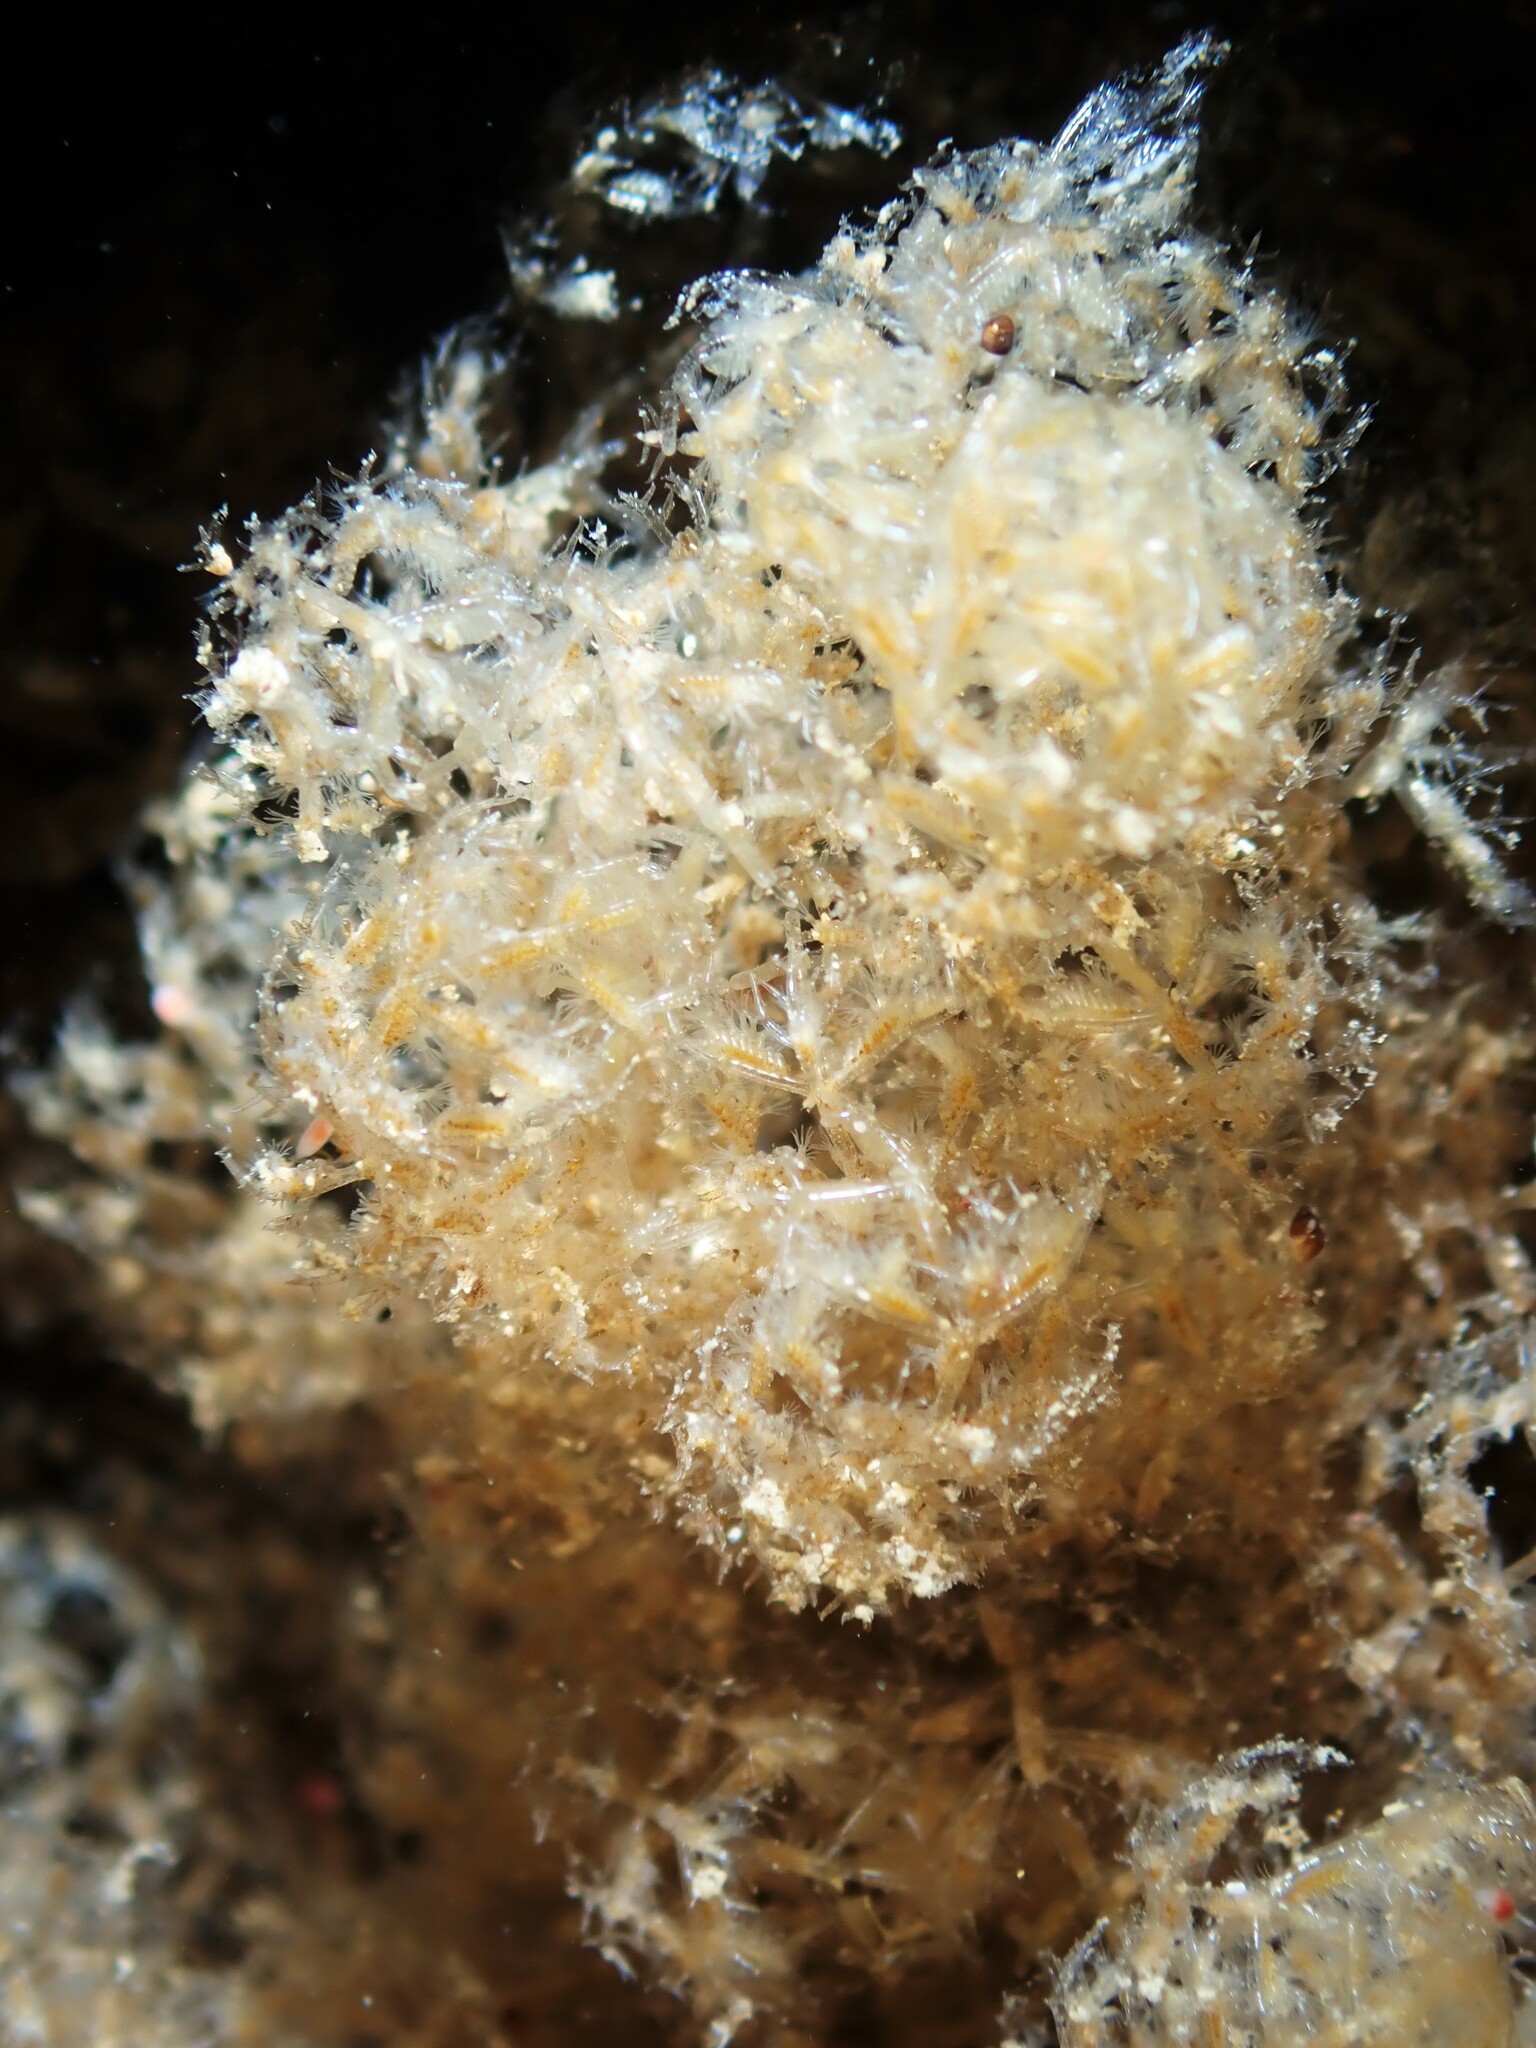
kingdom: Animalia
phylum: Bryozoa
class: Gymnolaemata
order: Ctenostomatida
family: Vesiculariidae
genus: Amathia
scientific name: Amathia wilsoni
